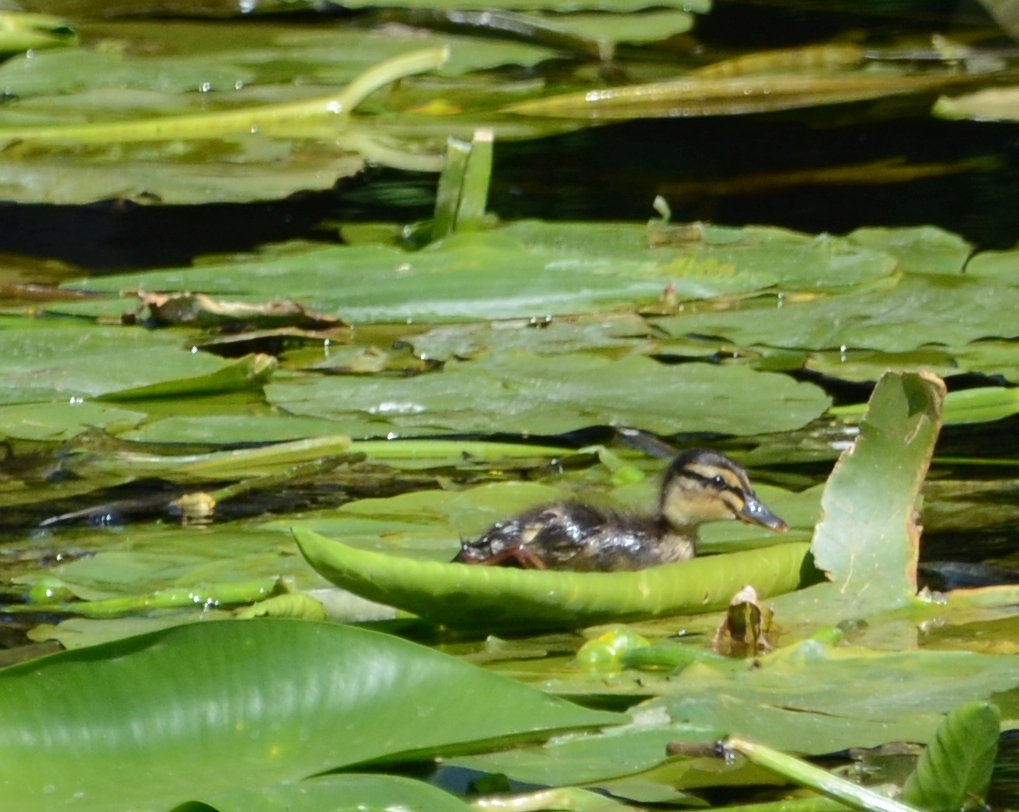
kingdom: Animalia
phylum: Chordata
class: Aves
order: Anseriformes
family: Anatidae
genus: Anas
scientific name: Anas platyrhynchos
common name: Mallard
